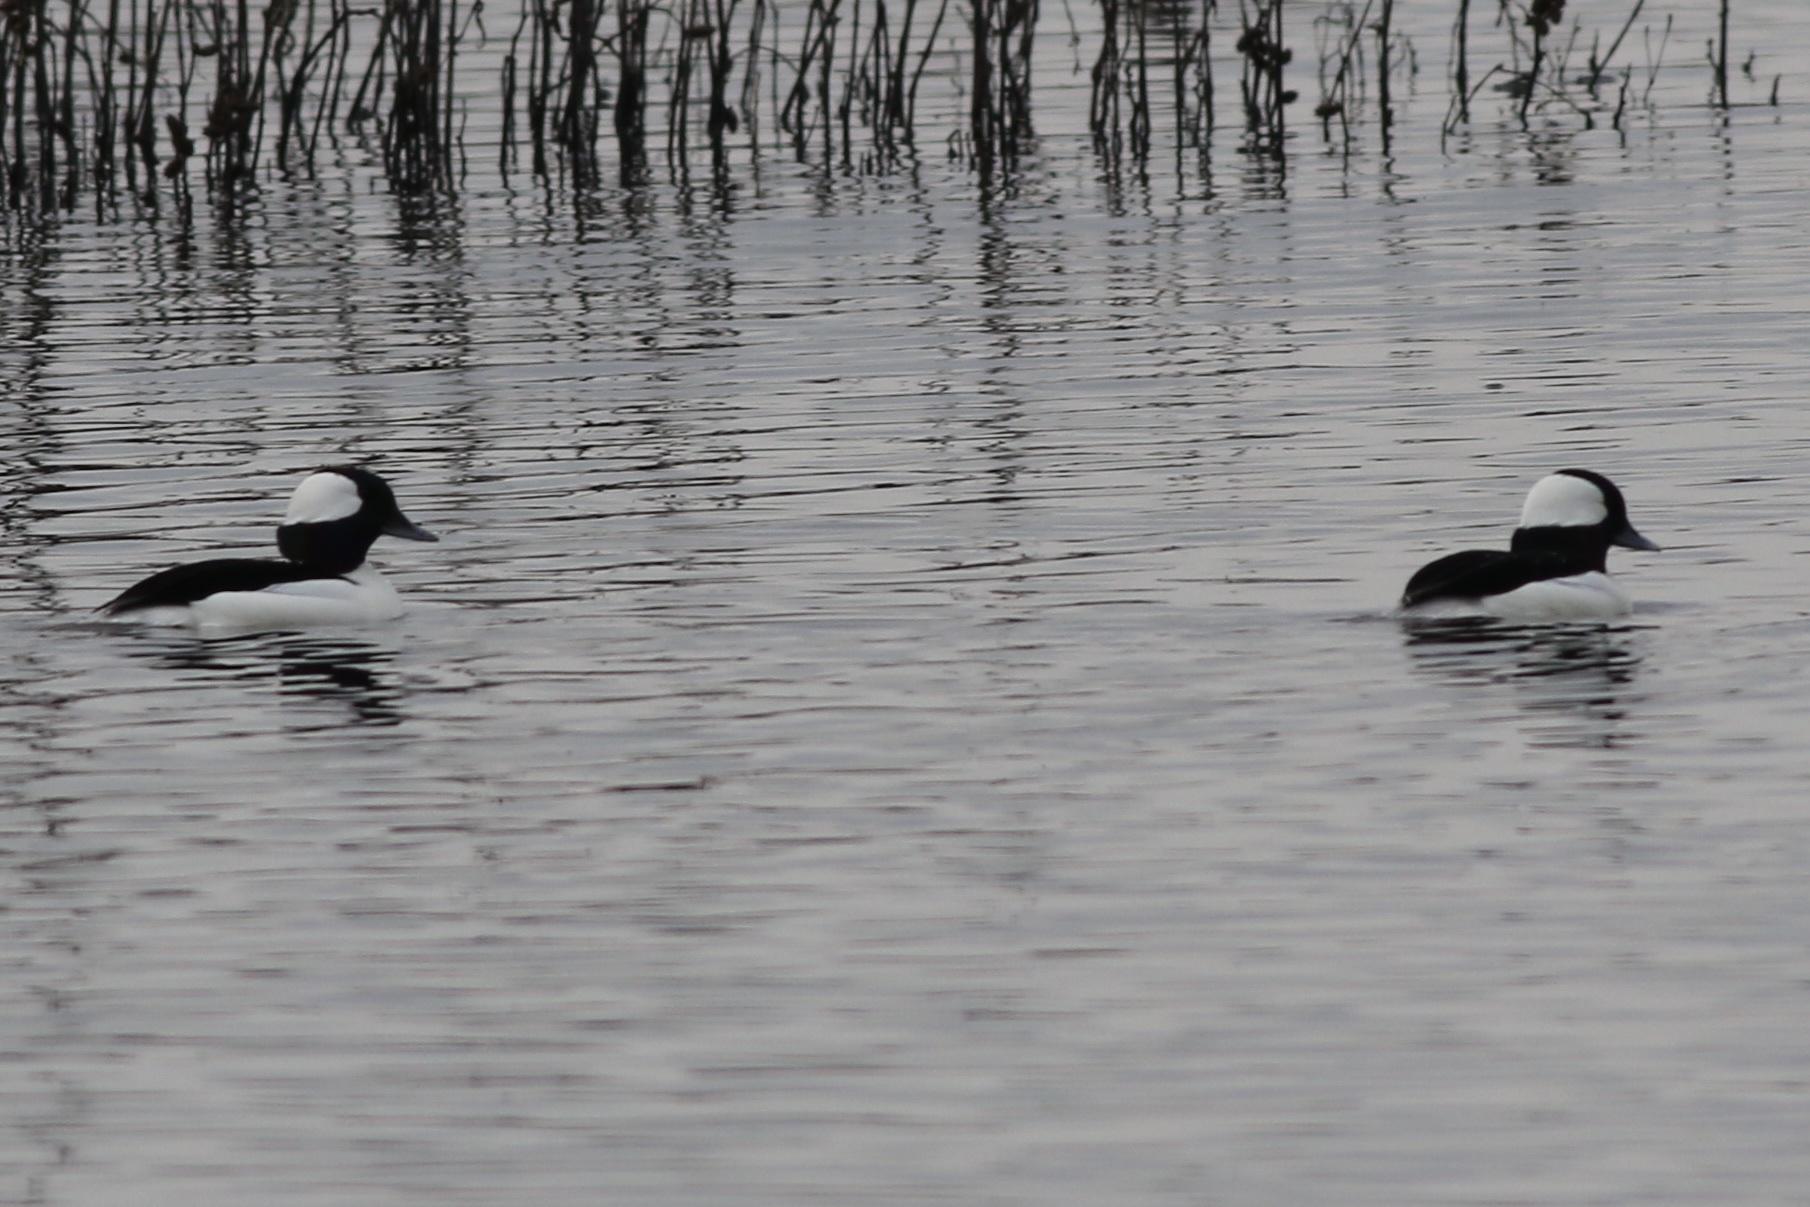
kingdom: Animalia
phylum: Chordata
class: Aves
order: Anseriformes
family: Anatidae
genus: Bucephala
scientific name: Bucephala albeola
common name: Bufflehead
